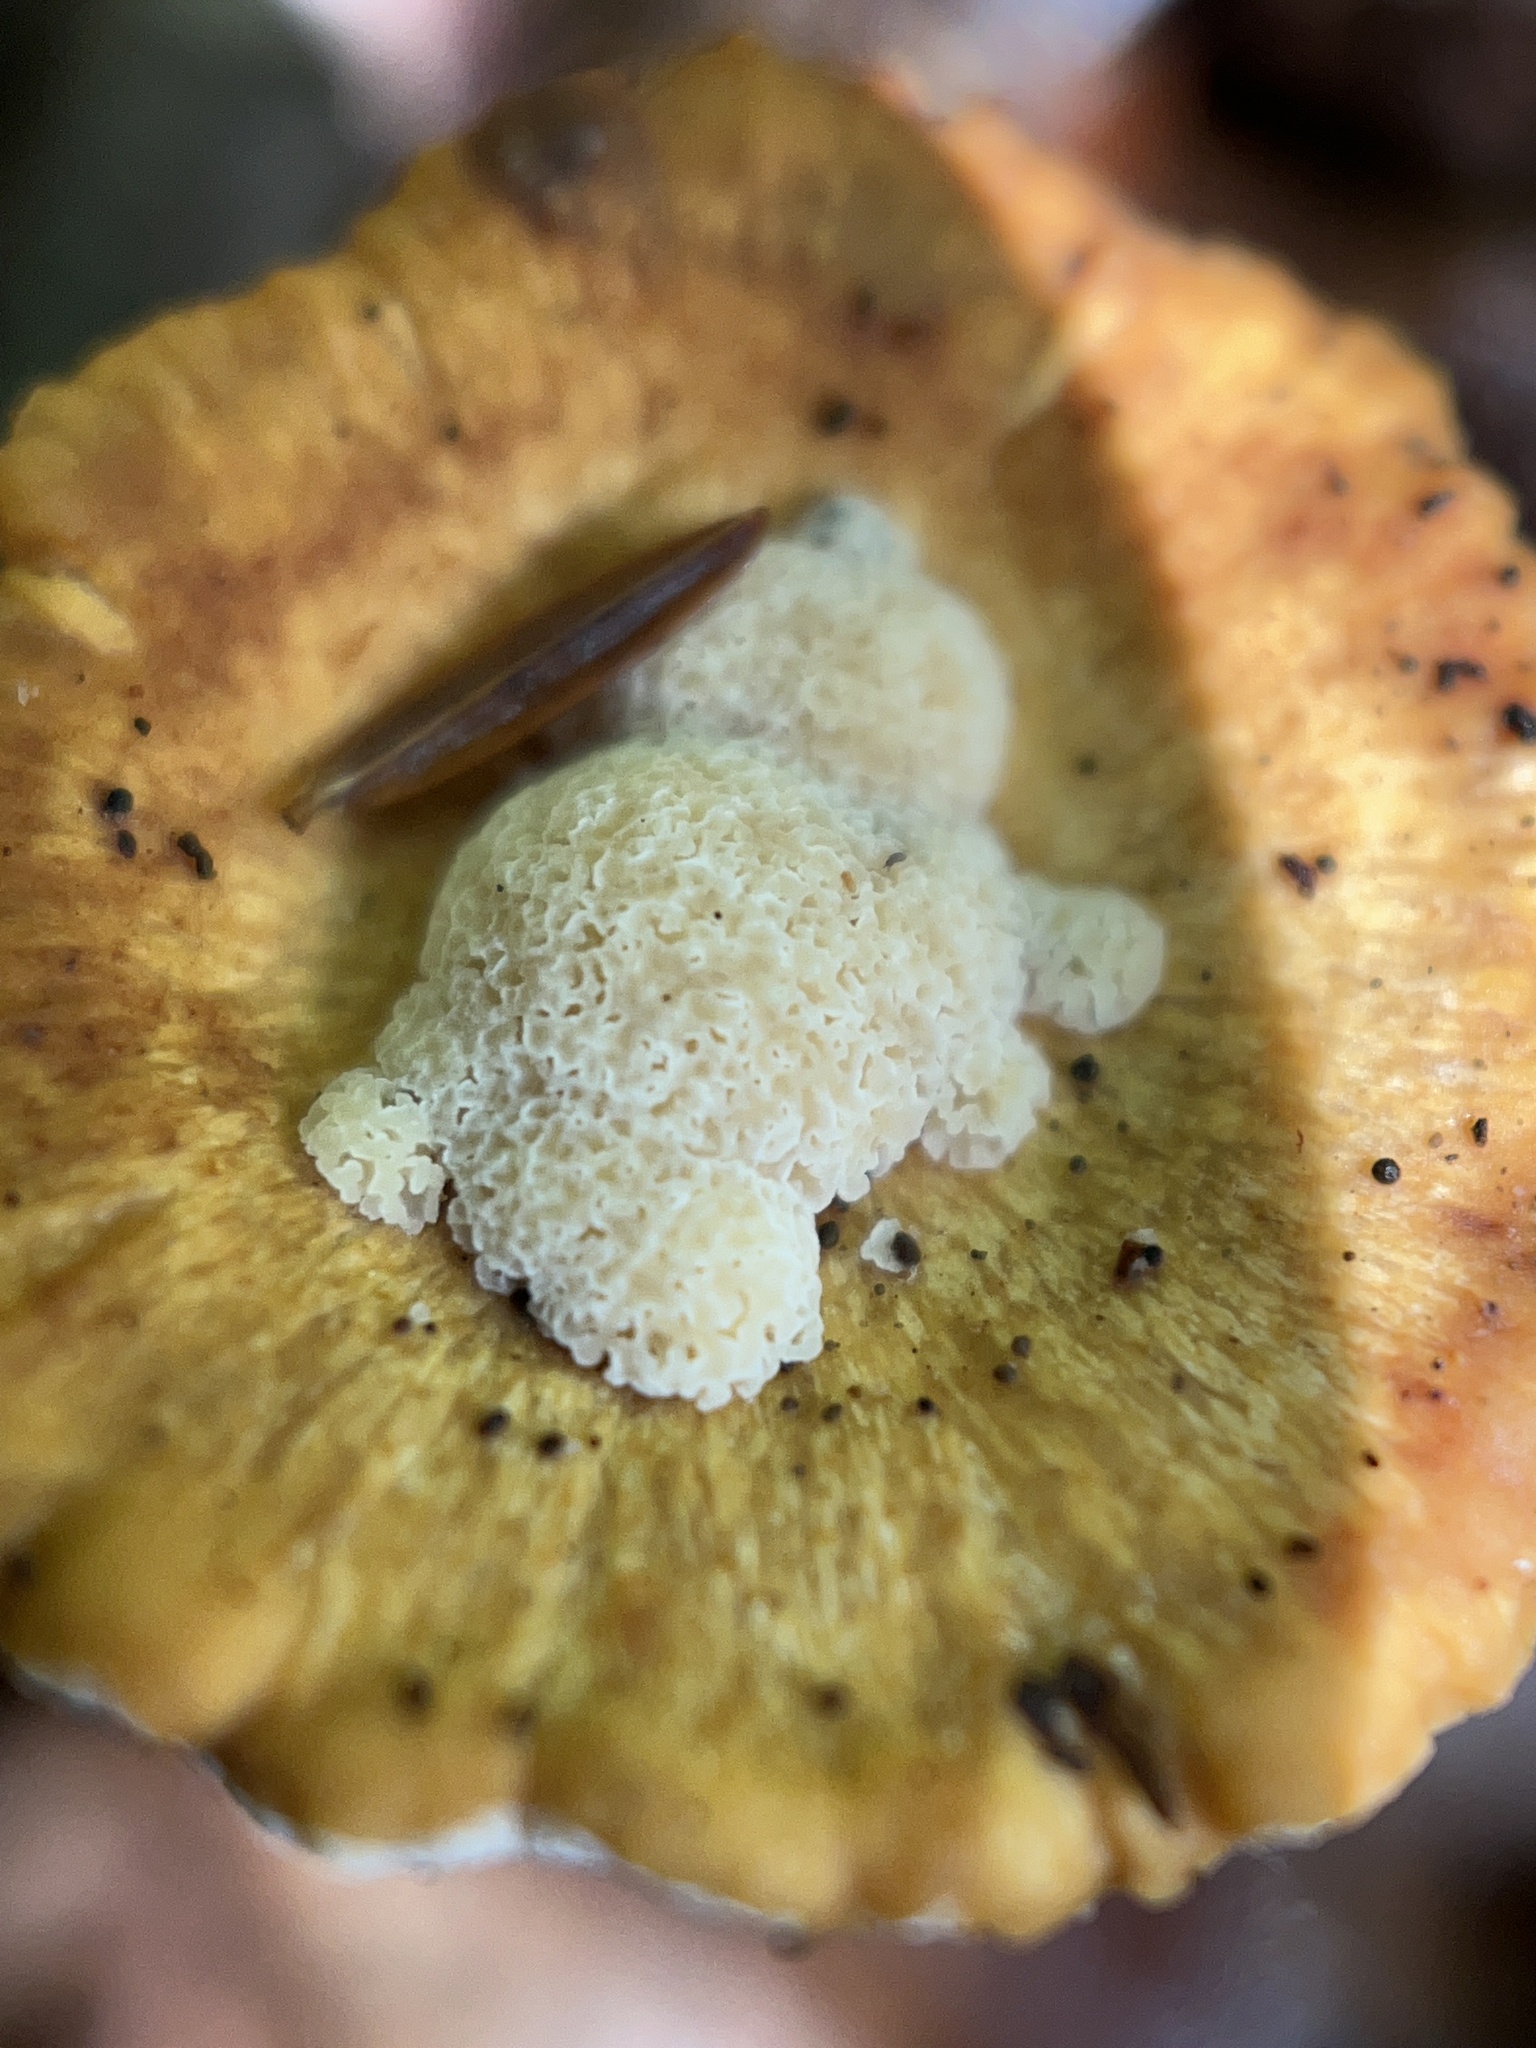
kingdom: Fungi
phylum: Basidiomycota
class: Agaricomycetes
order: Polyporales
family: Polyporaceae
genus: Cerioporus
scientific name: Cerioporus varius
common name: Elegant polypore
